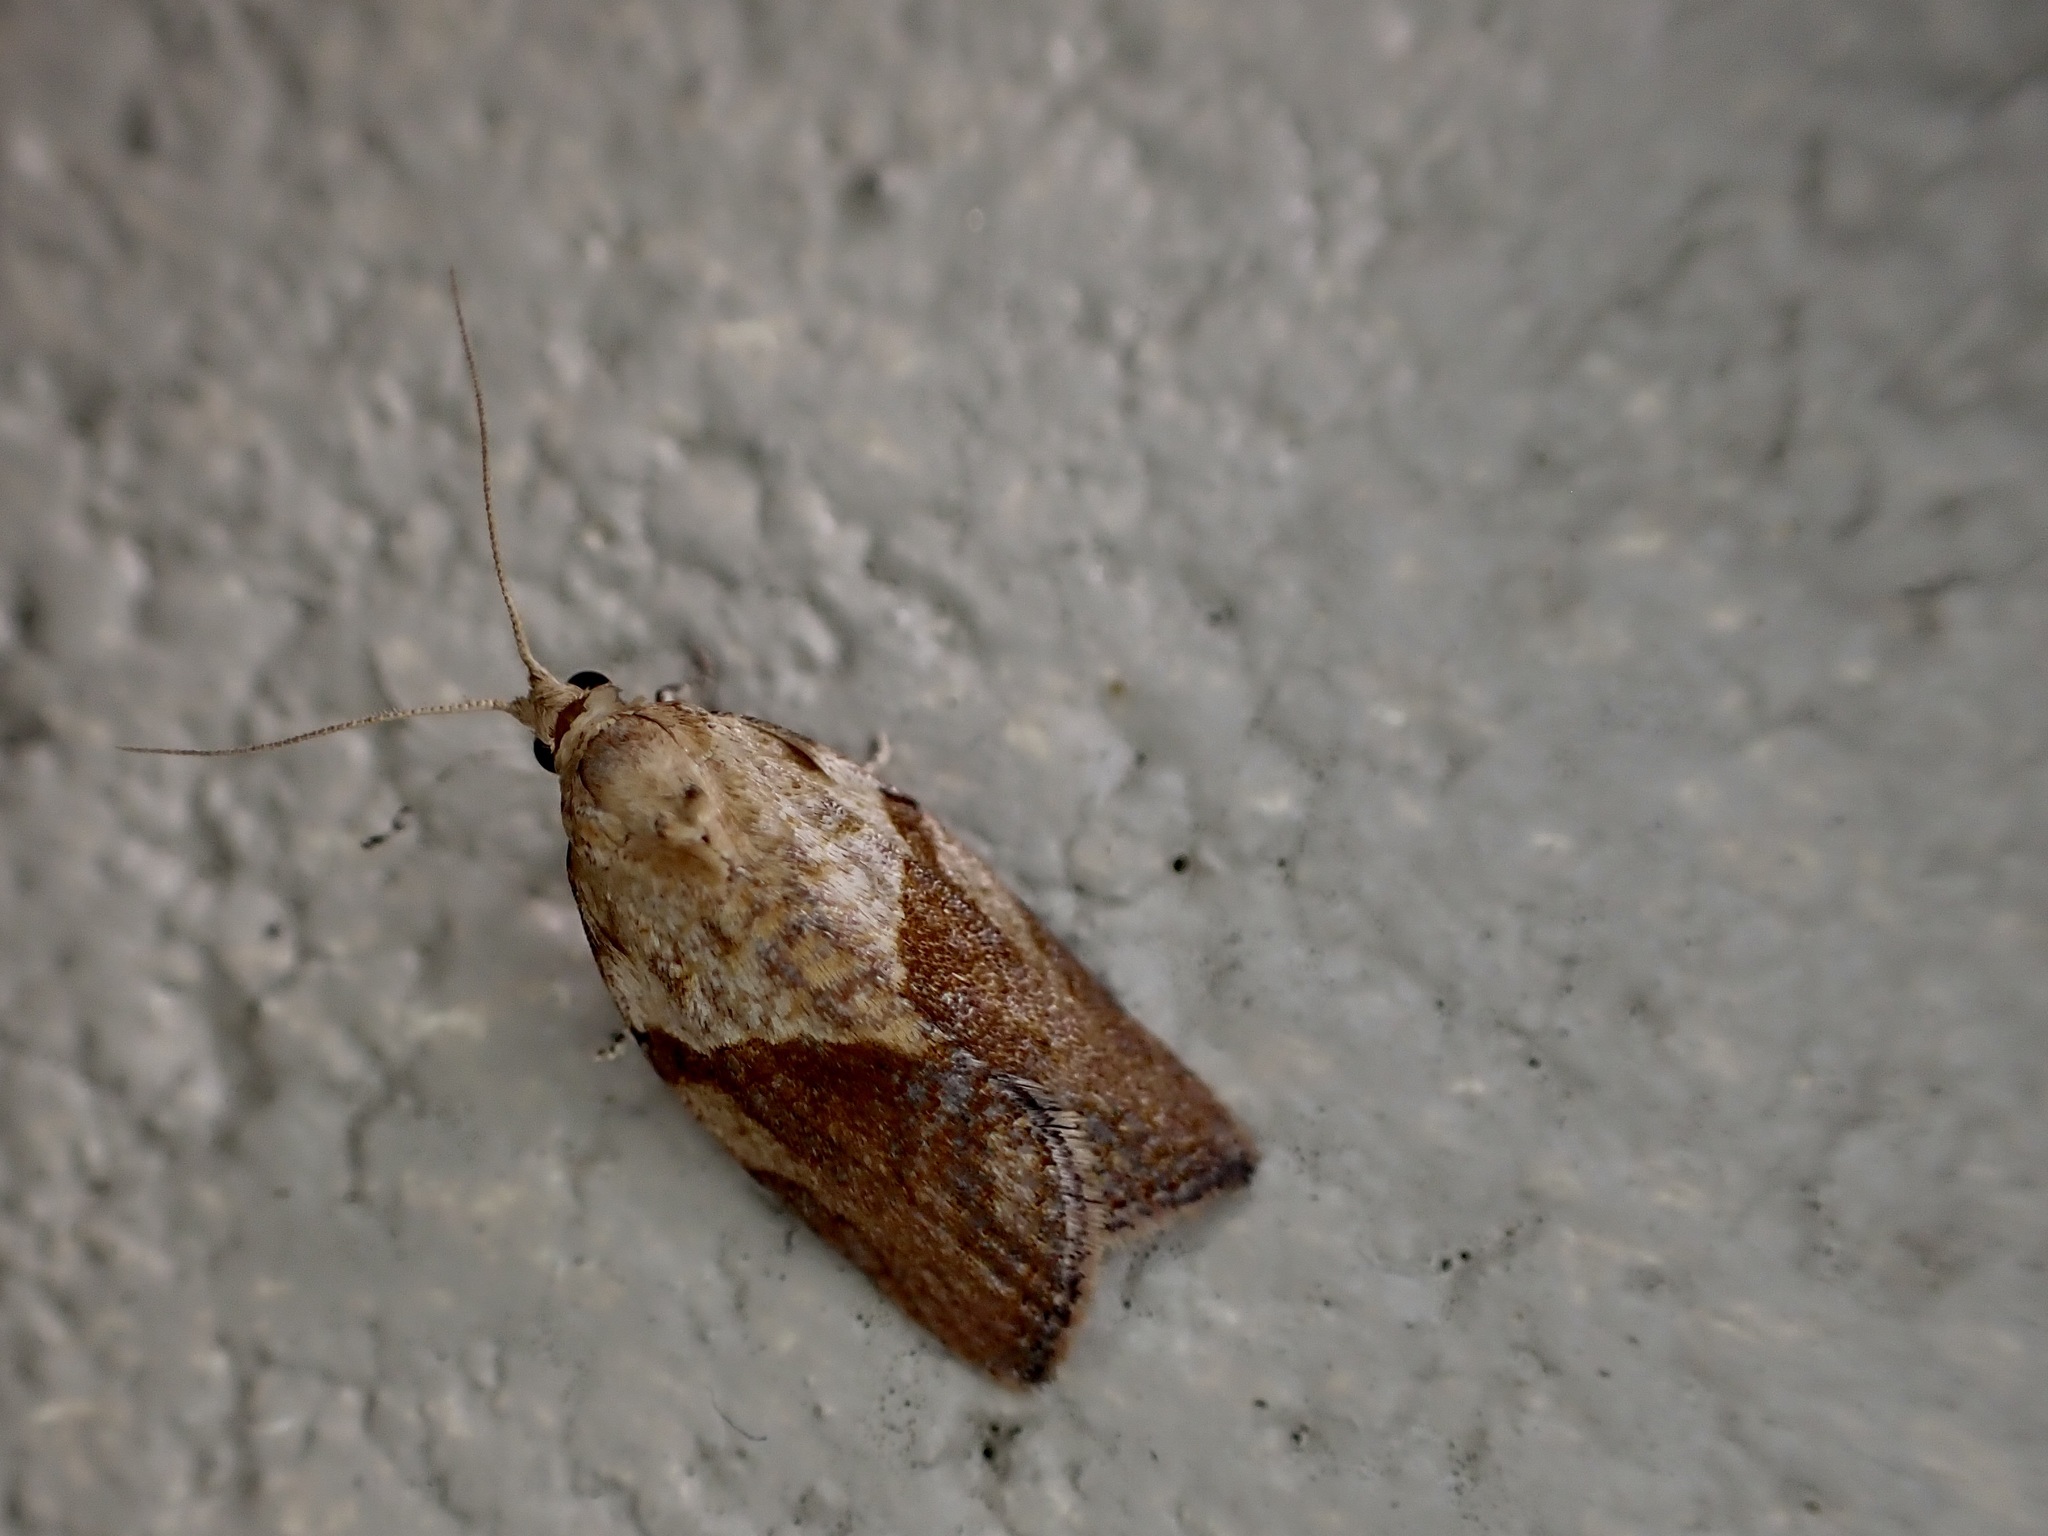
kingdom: Animalia
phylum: Arthropoda
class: Insecta
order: Lepidoptera
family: Tortricidae
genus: Epiphyas
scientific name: Epiphyas postvittana
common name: Light brown apple moth
